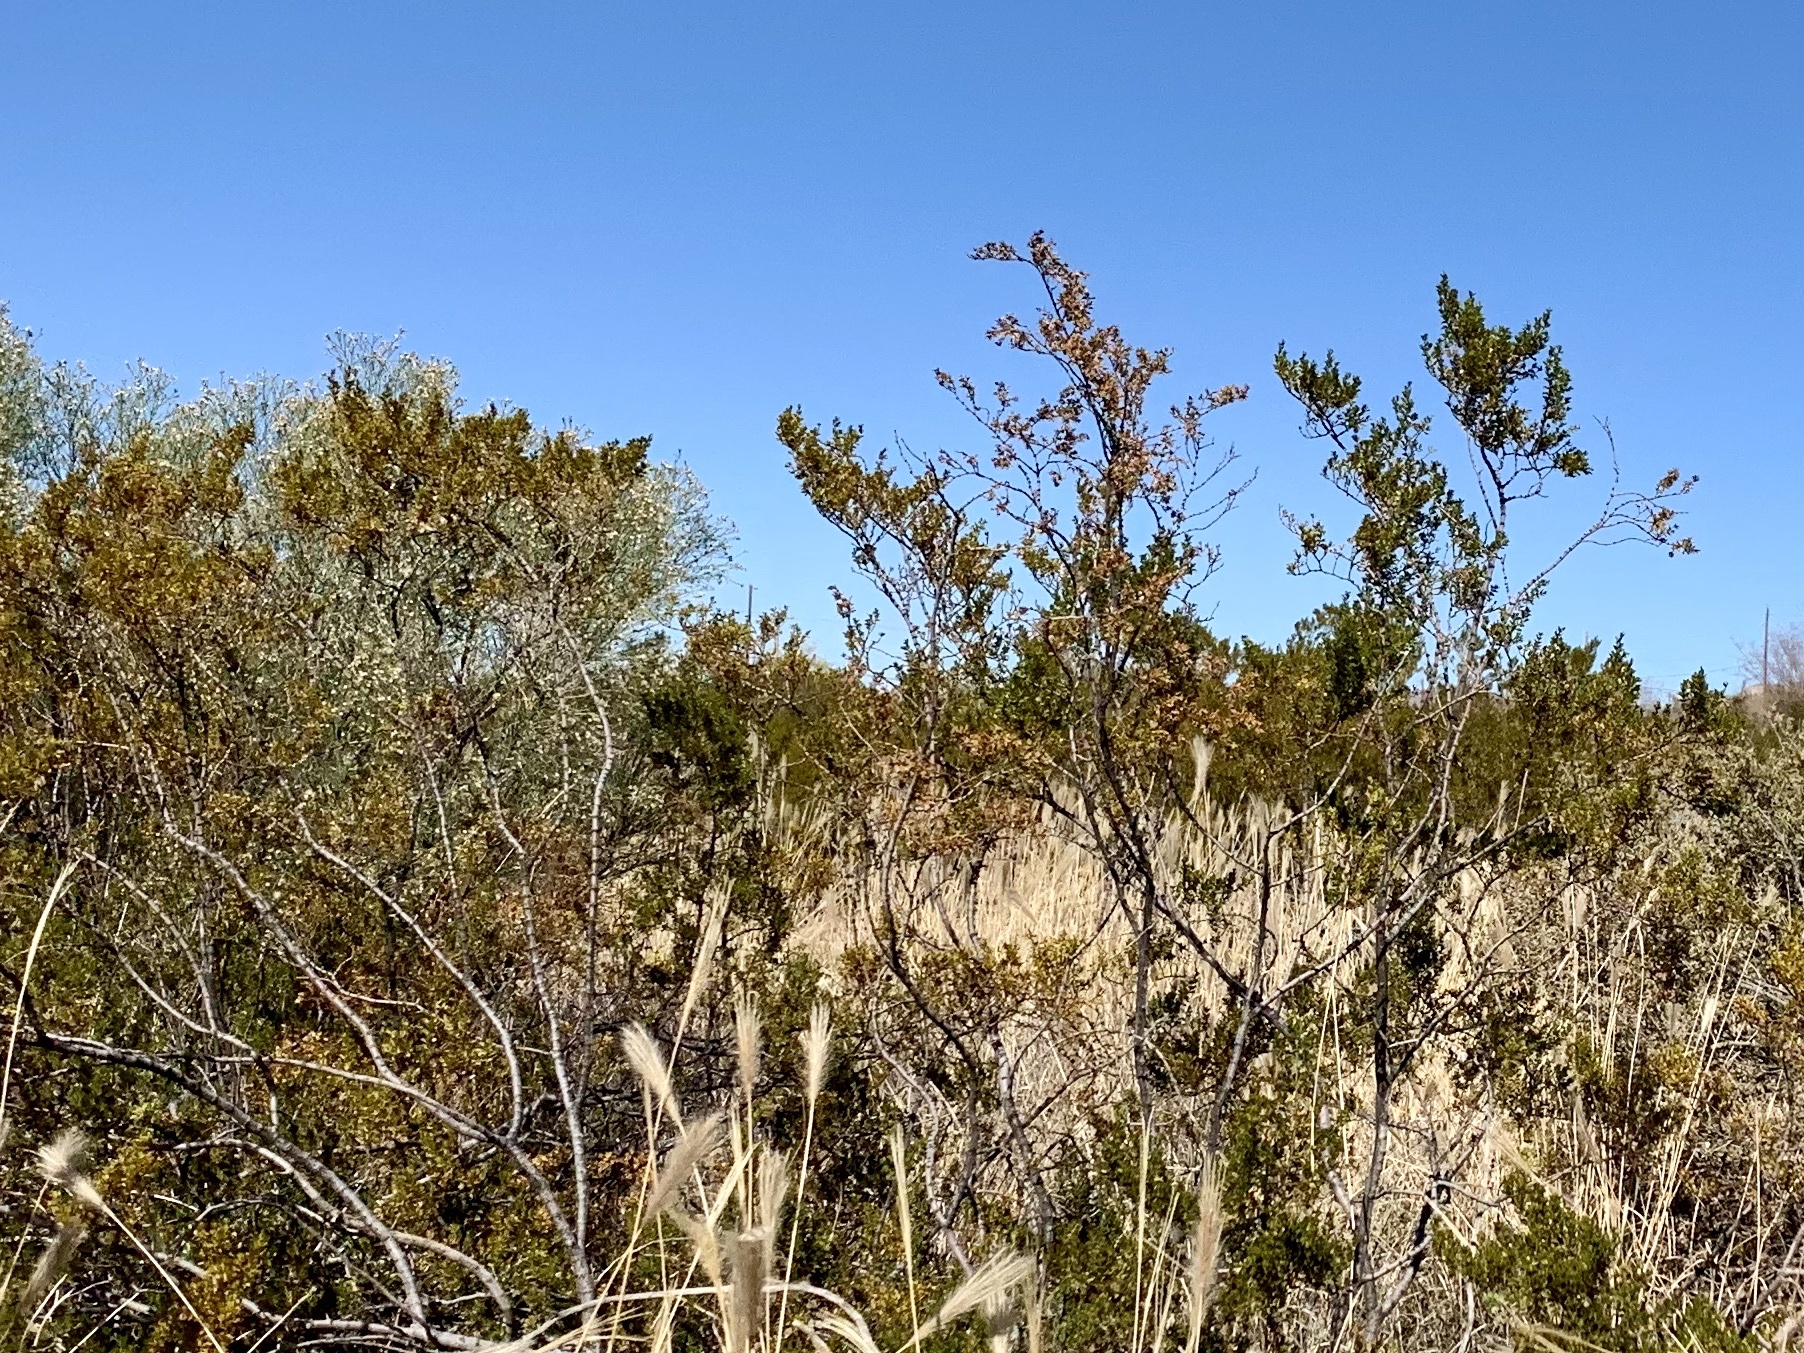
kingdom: Plantae
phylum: Tracheophyta
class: Magnoliopsida
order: Zygophyllales
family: Zygophyllaceae
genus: Larrea
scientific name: Larrea tridentata
